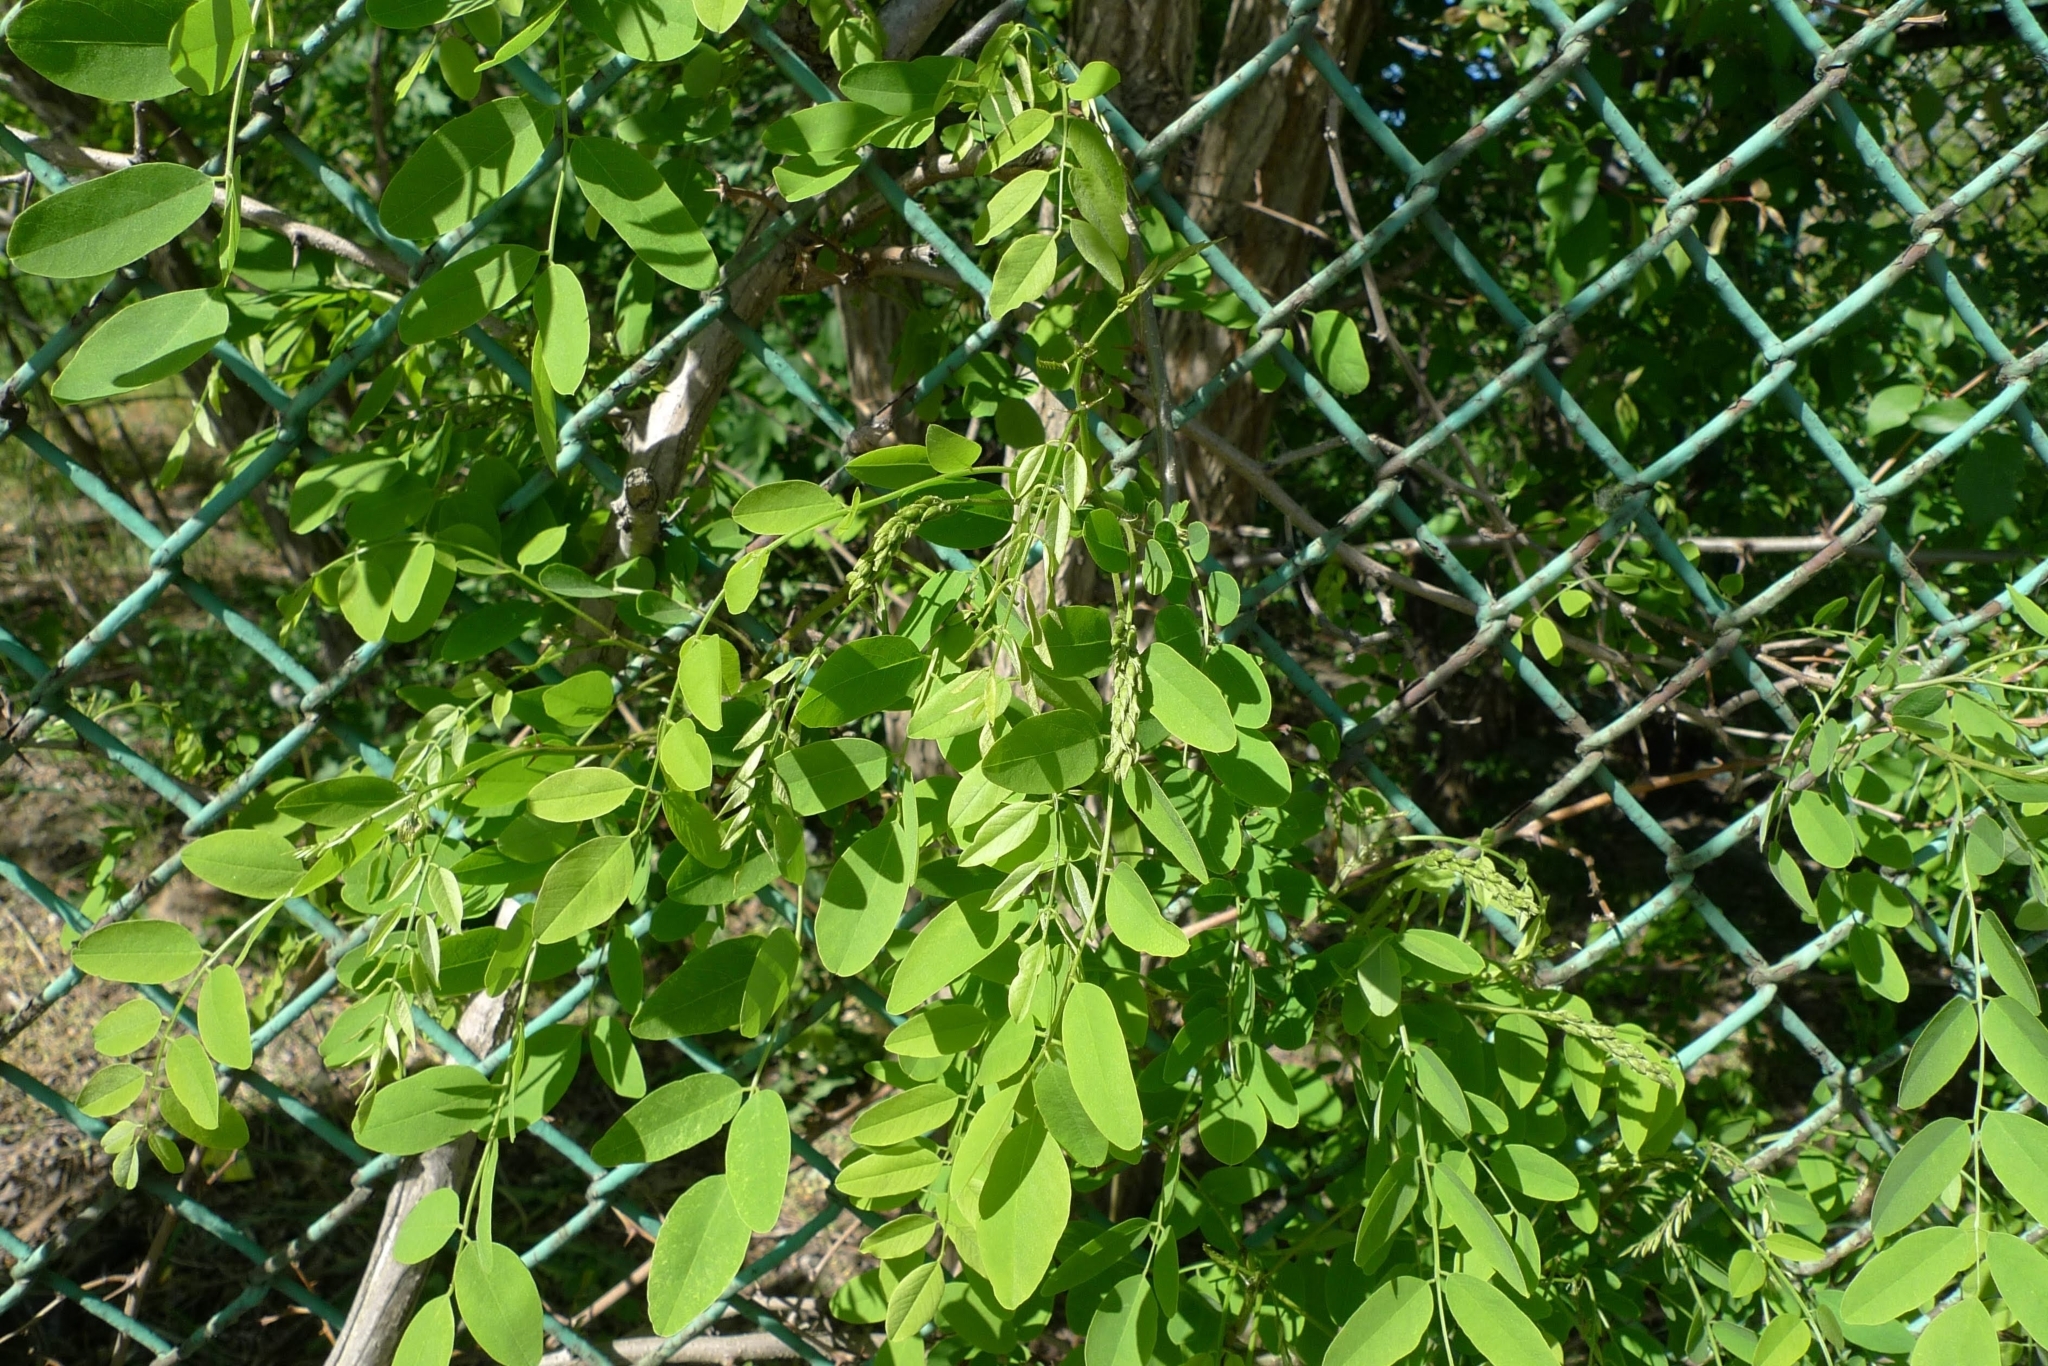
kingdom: Plantae
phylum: Tracheophyta
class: Magnoliopsida
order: Fabales
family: Fabaceae
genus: Robinia
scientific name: Robinia pseudoacacia
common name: Black locust
